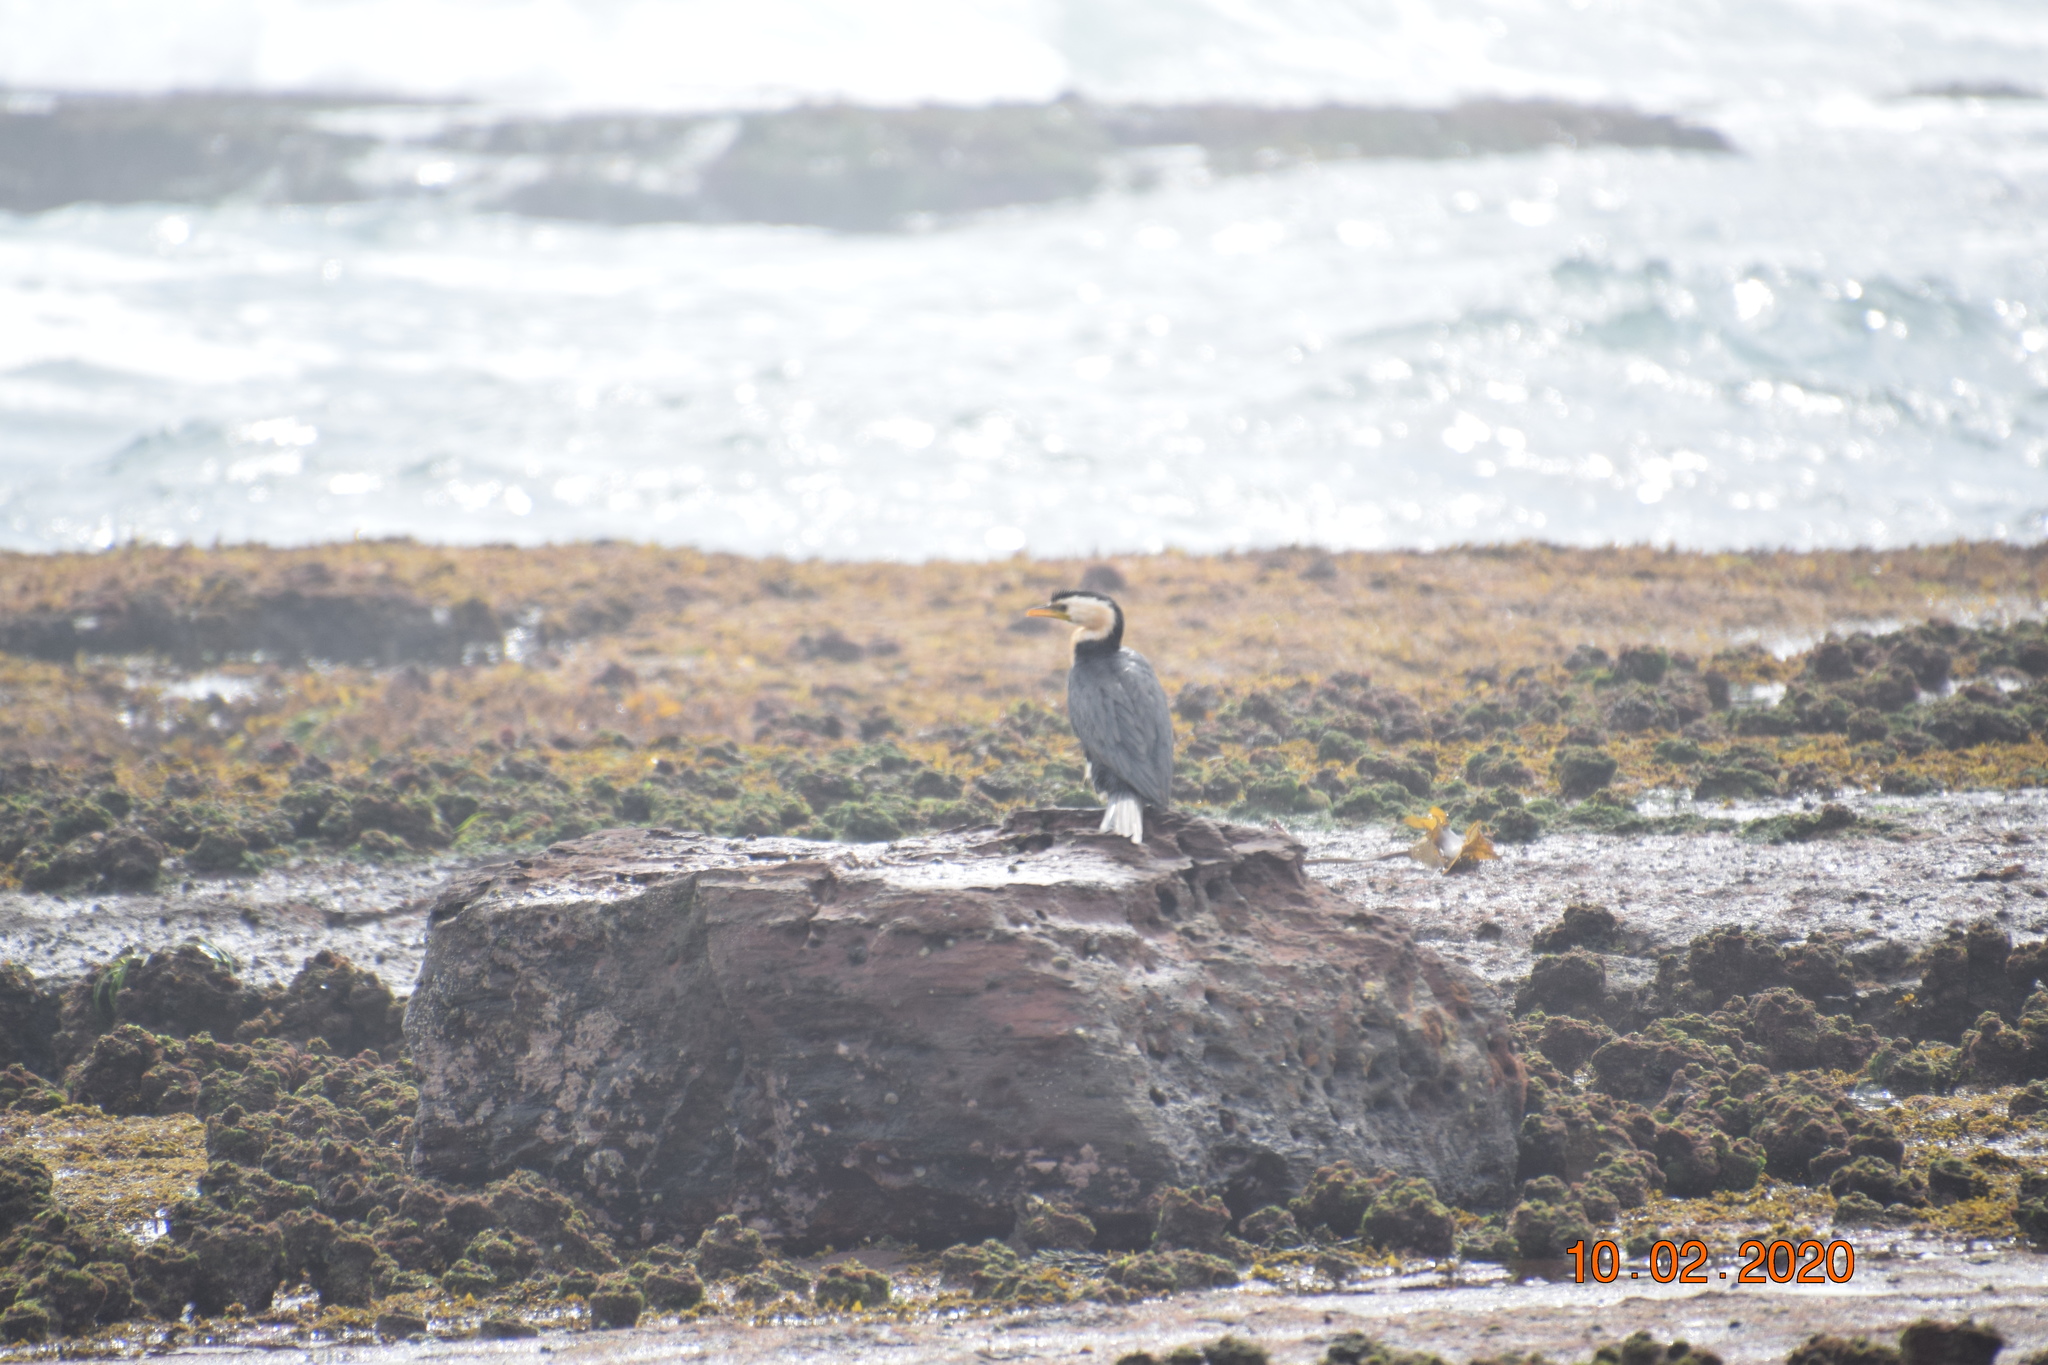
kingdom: Animalia
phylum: Chordata
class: Aves
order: Suliformes
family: Phalacrocoracidae
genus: Microcarbo
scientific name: Microcarbo melanoleucos
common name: Little pied cormorant
